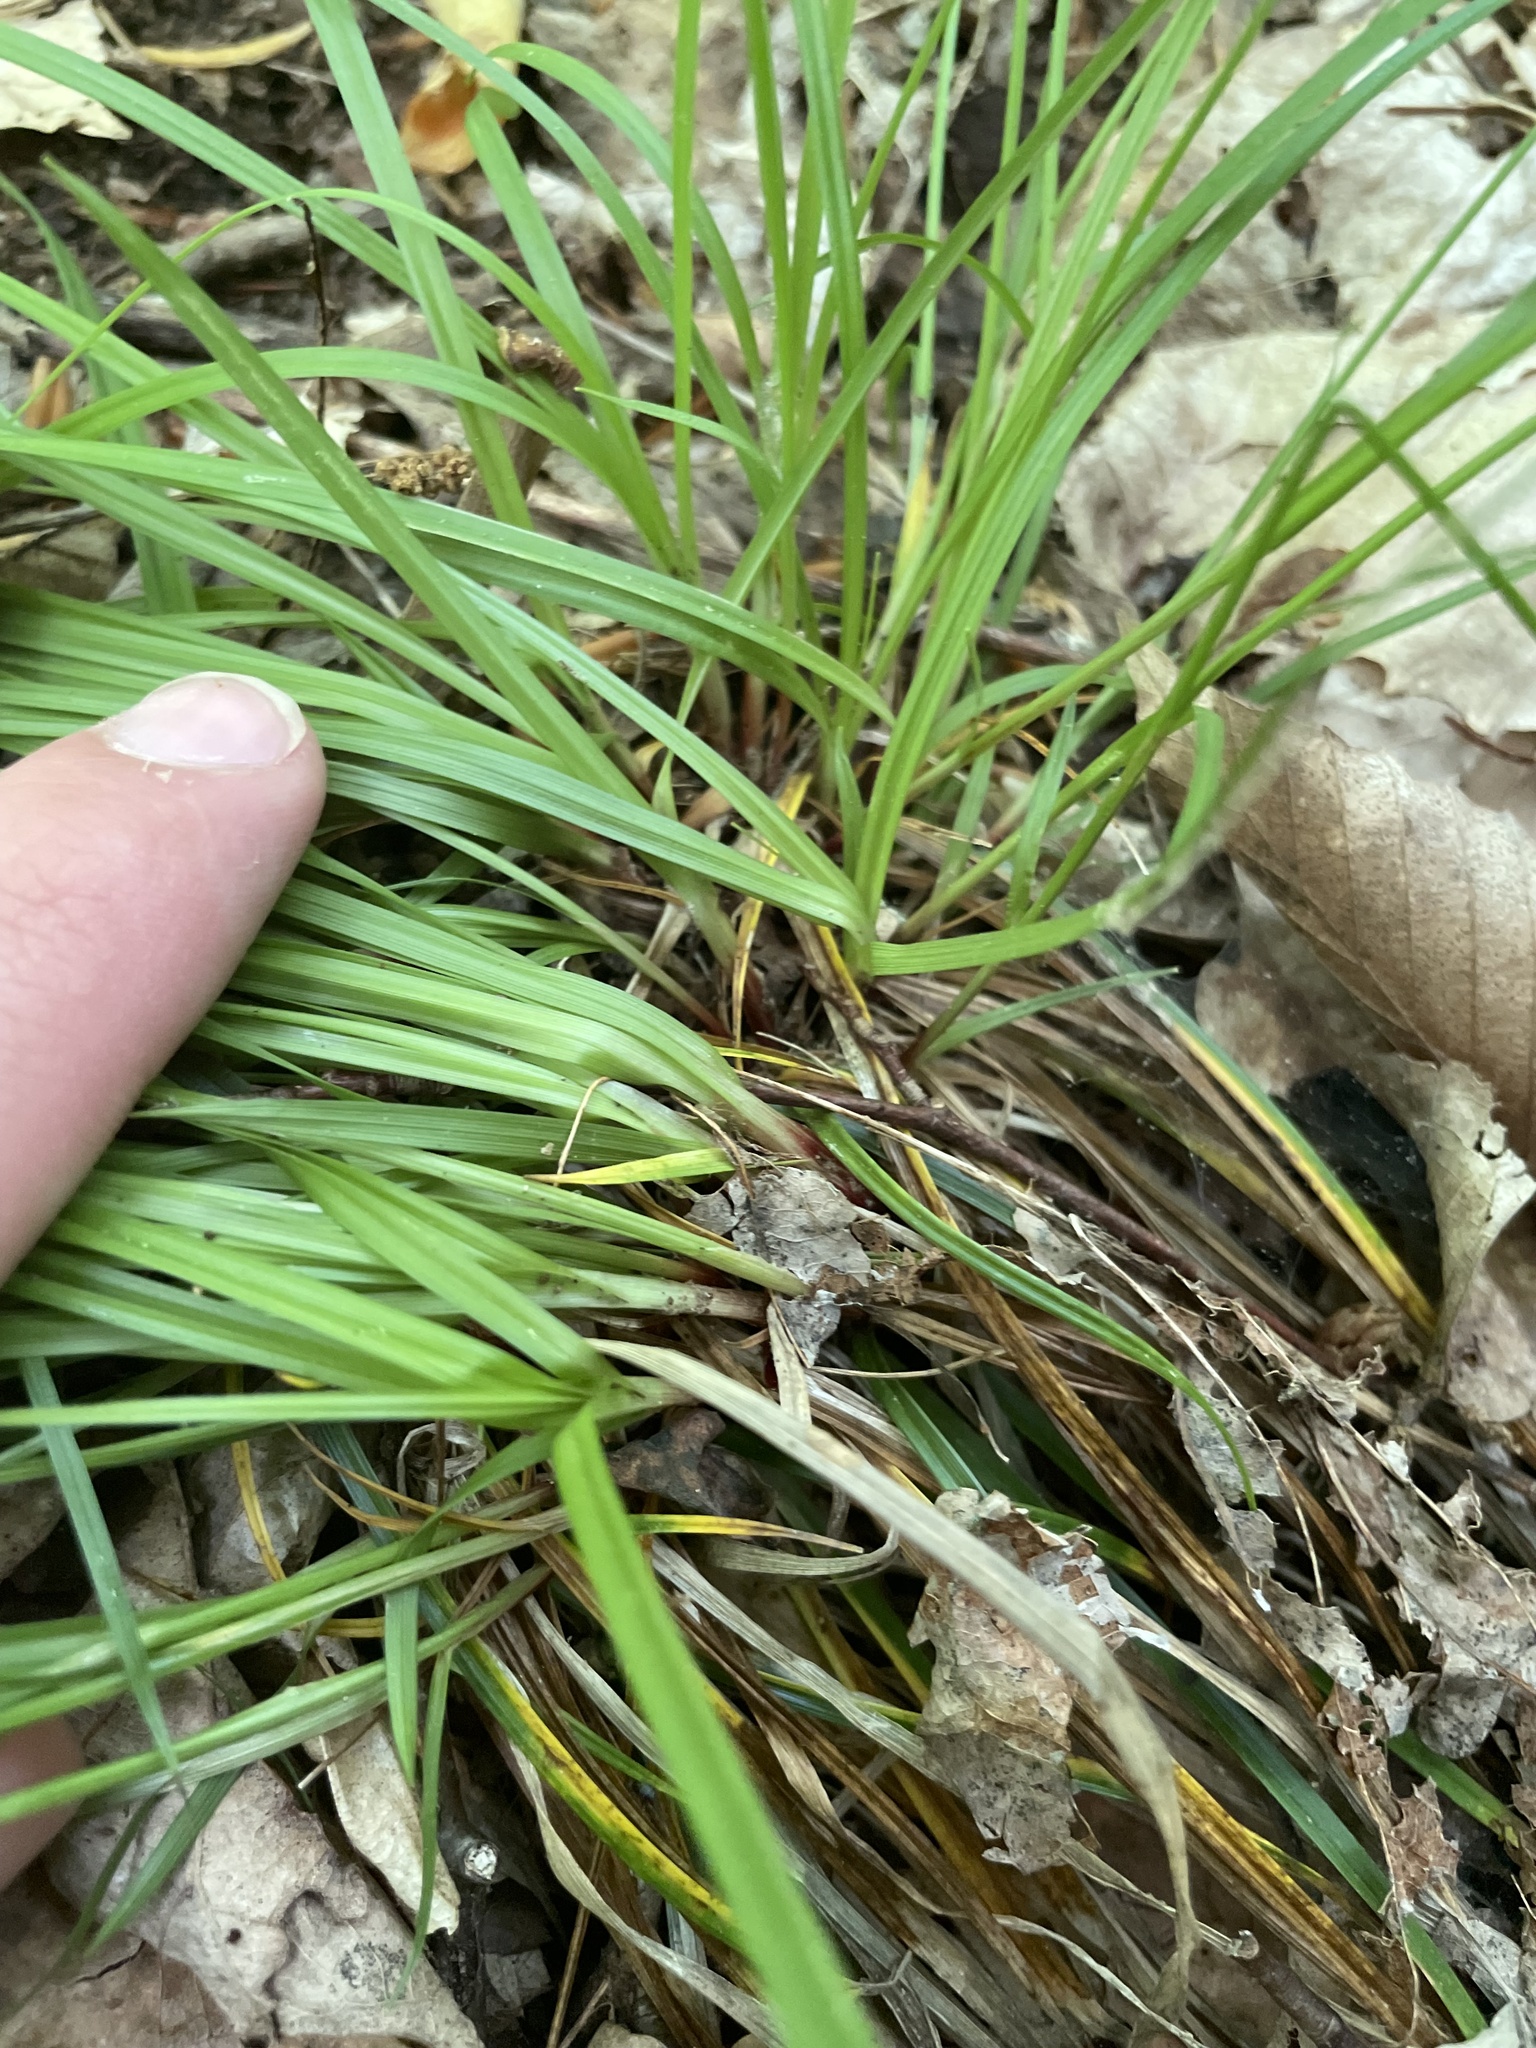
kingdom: Plantae
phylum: Tracheophyta
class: Liliopsida
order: Poales
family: Cyperaceae
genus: Carex
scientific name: Carex communis
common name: Colonial oak sedge
